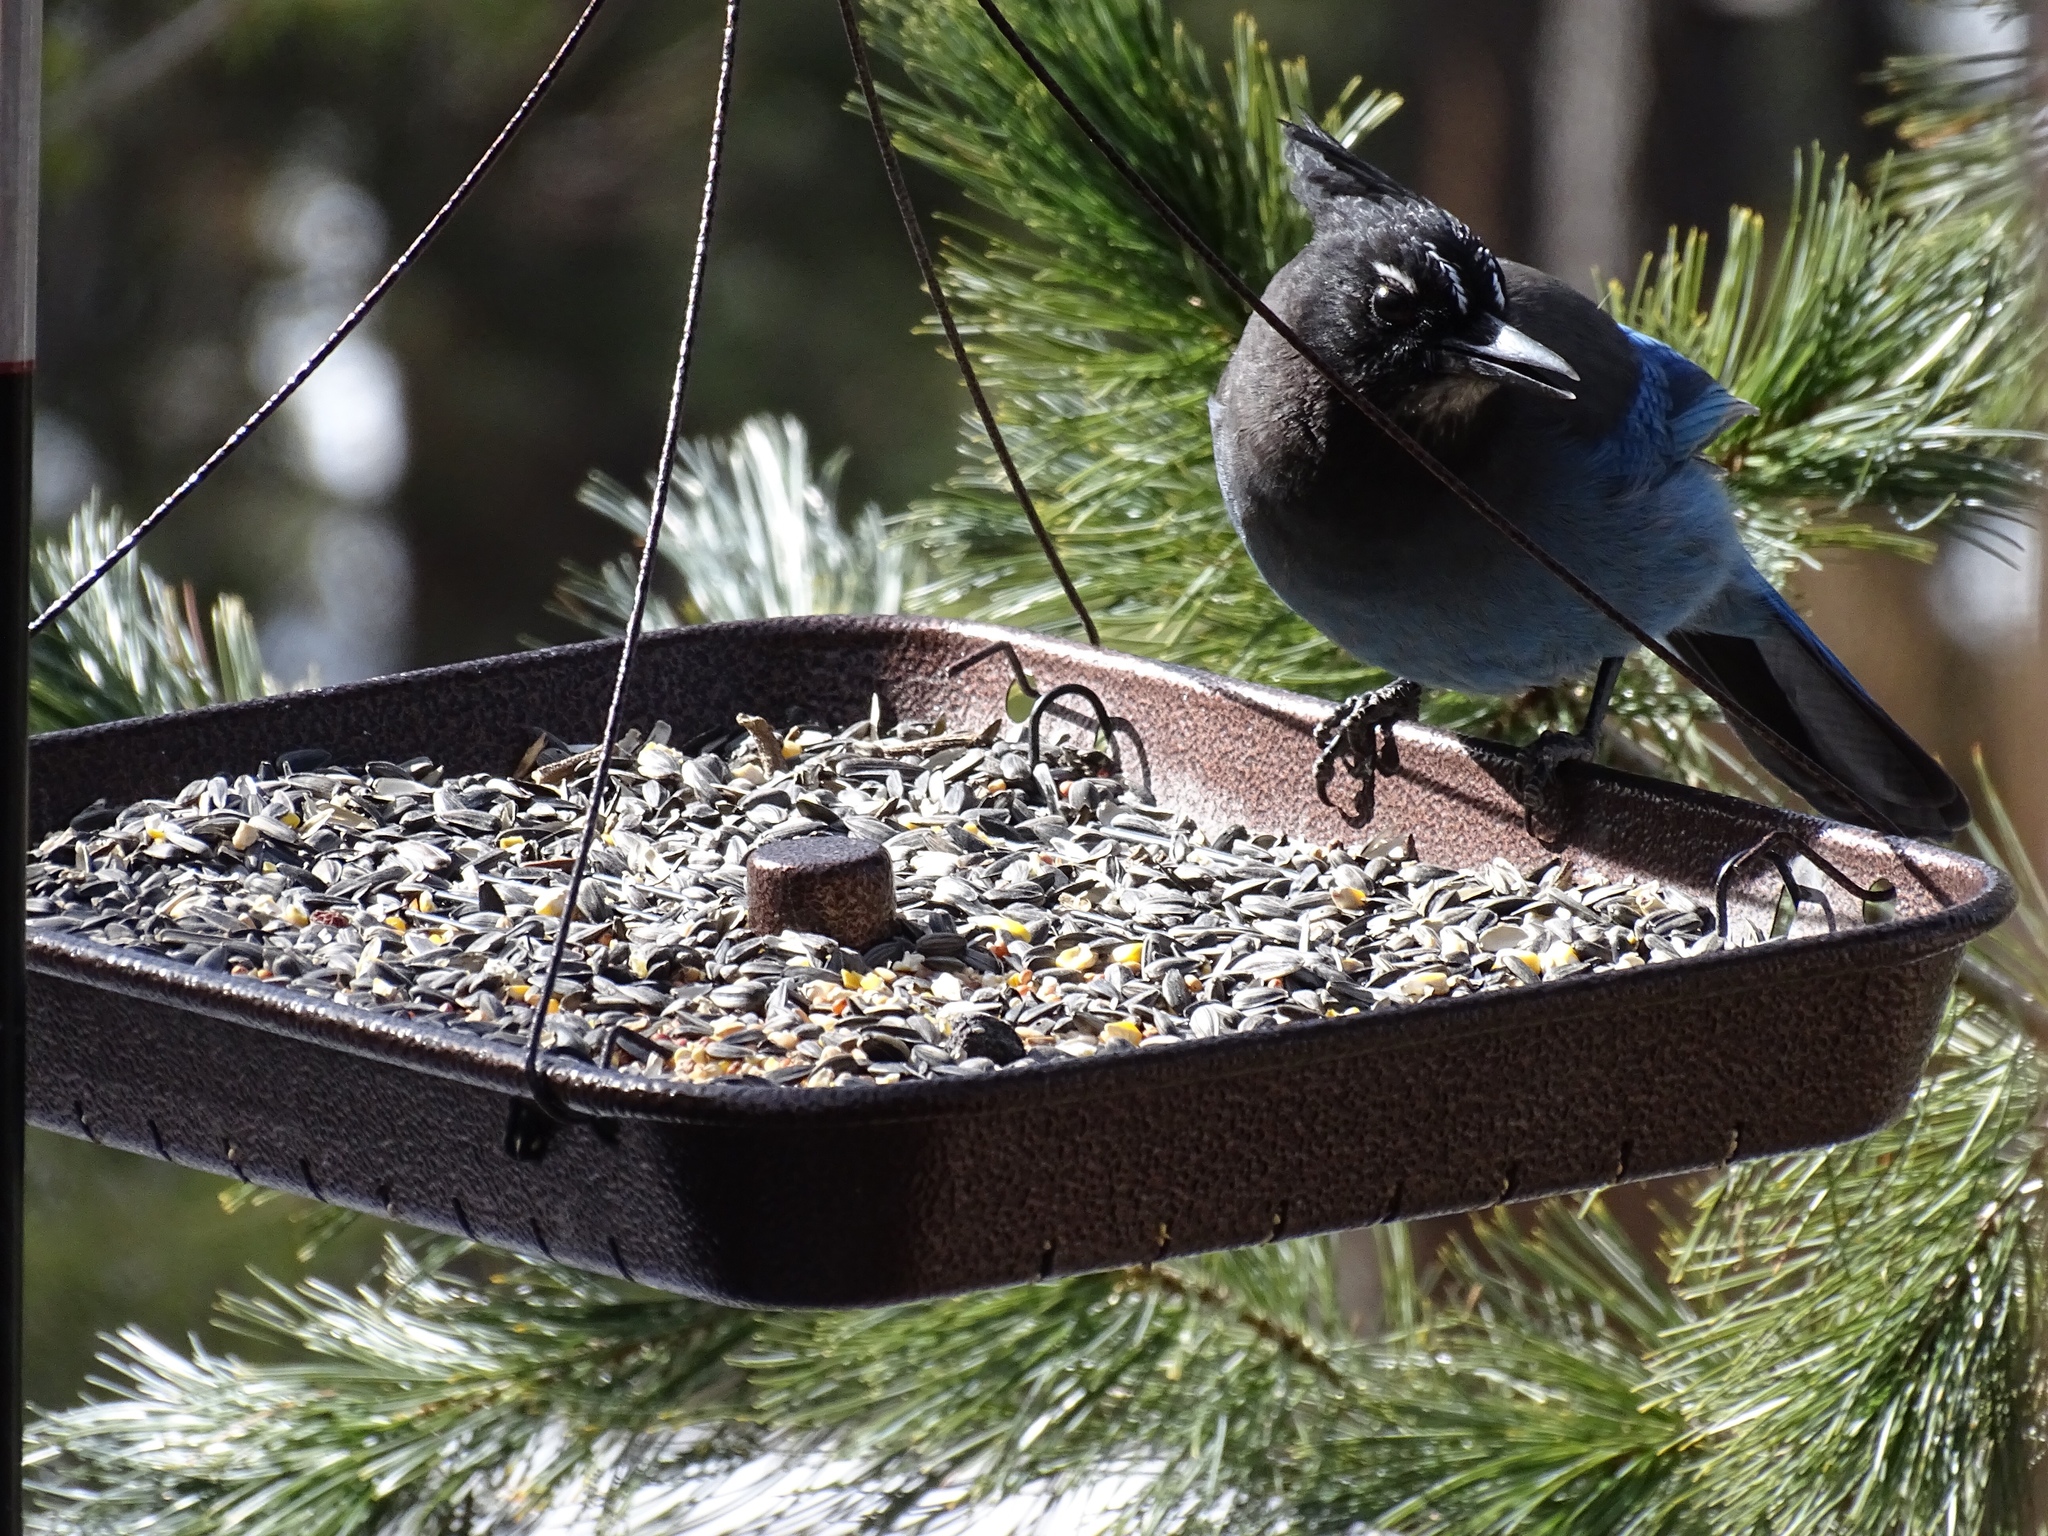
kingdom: Animalia
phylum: Chordata
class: Aves
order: Passeriformes
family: Corvidae
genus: Cyanocitta
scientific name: Cyanocitta stelleri
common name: Steller's jay
